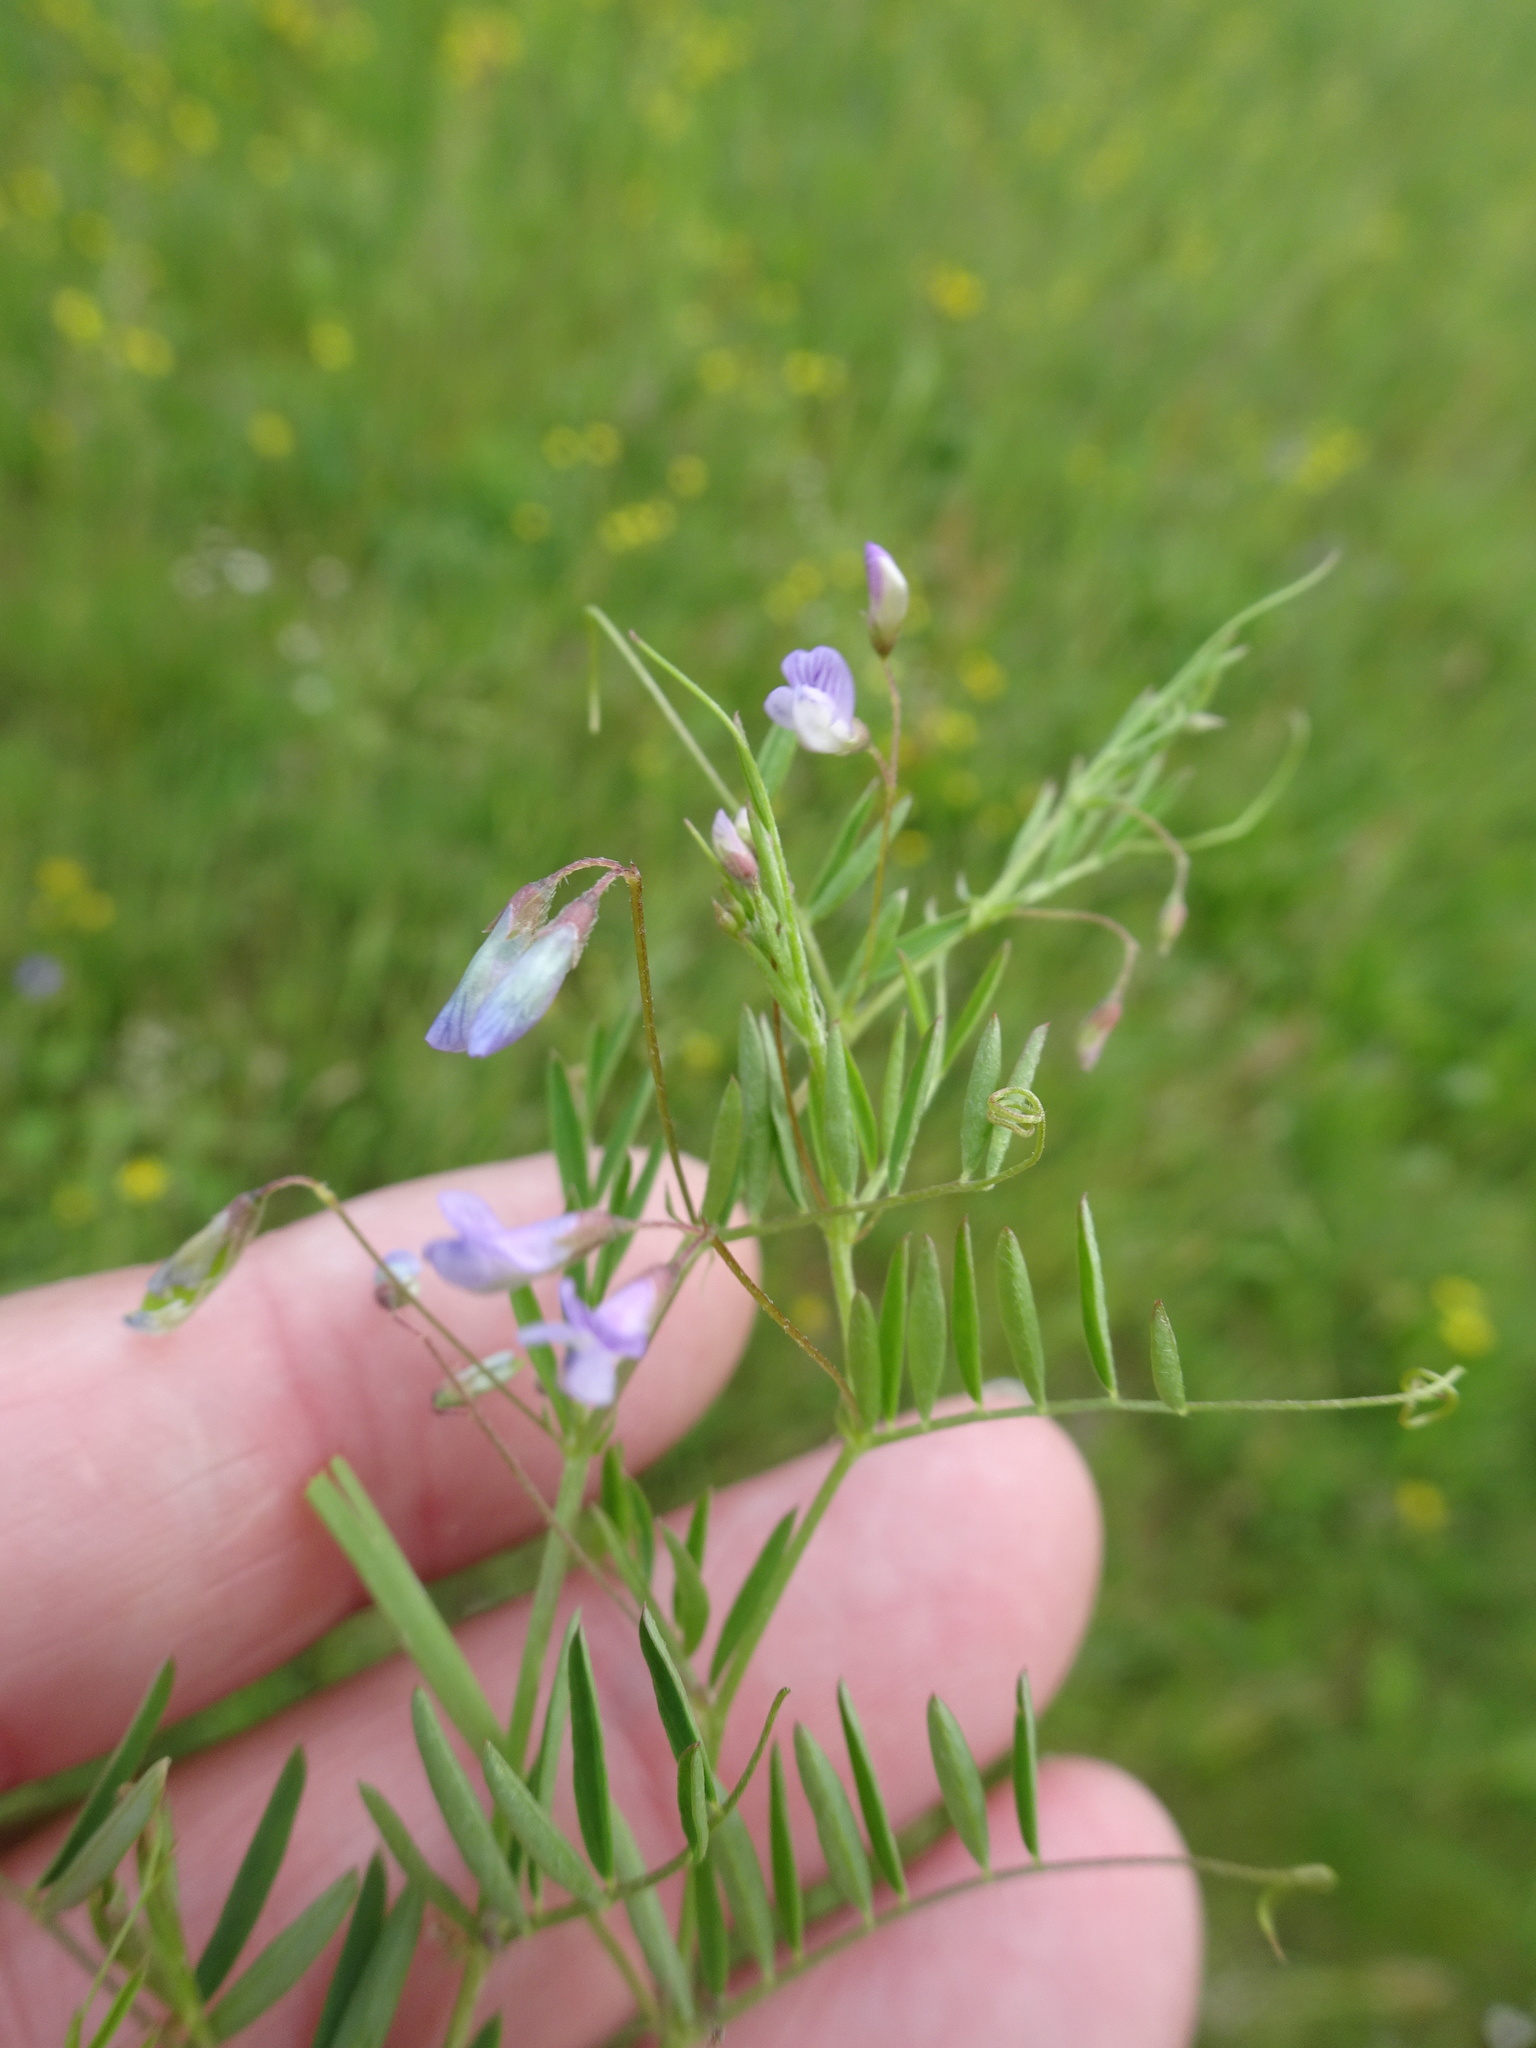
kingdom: Plantae
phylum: Tracheophyta
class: Magnoliopsida
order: Fabales
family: Fabaceae
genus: Vicia
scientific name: Vicia tetrasperma
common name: Smooth tare
